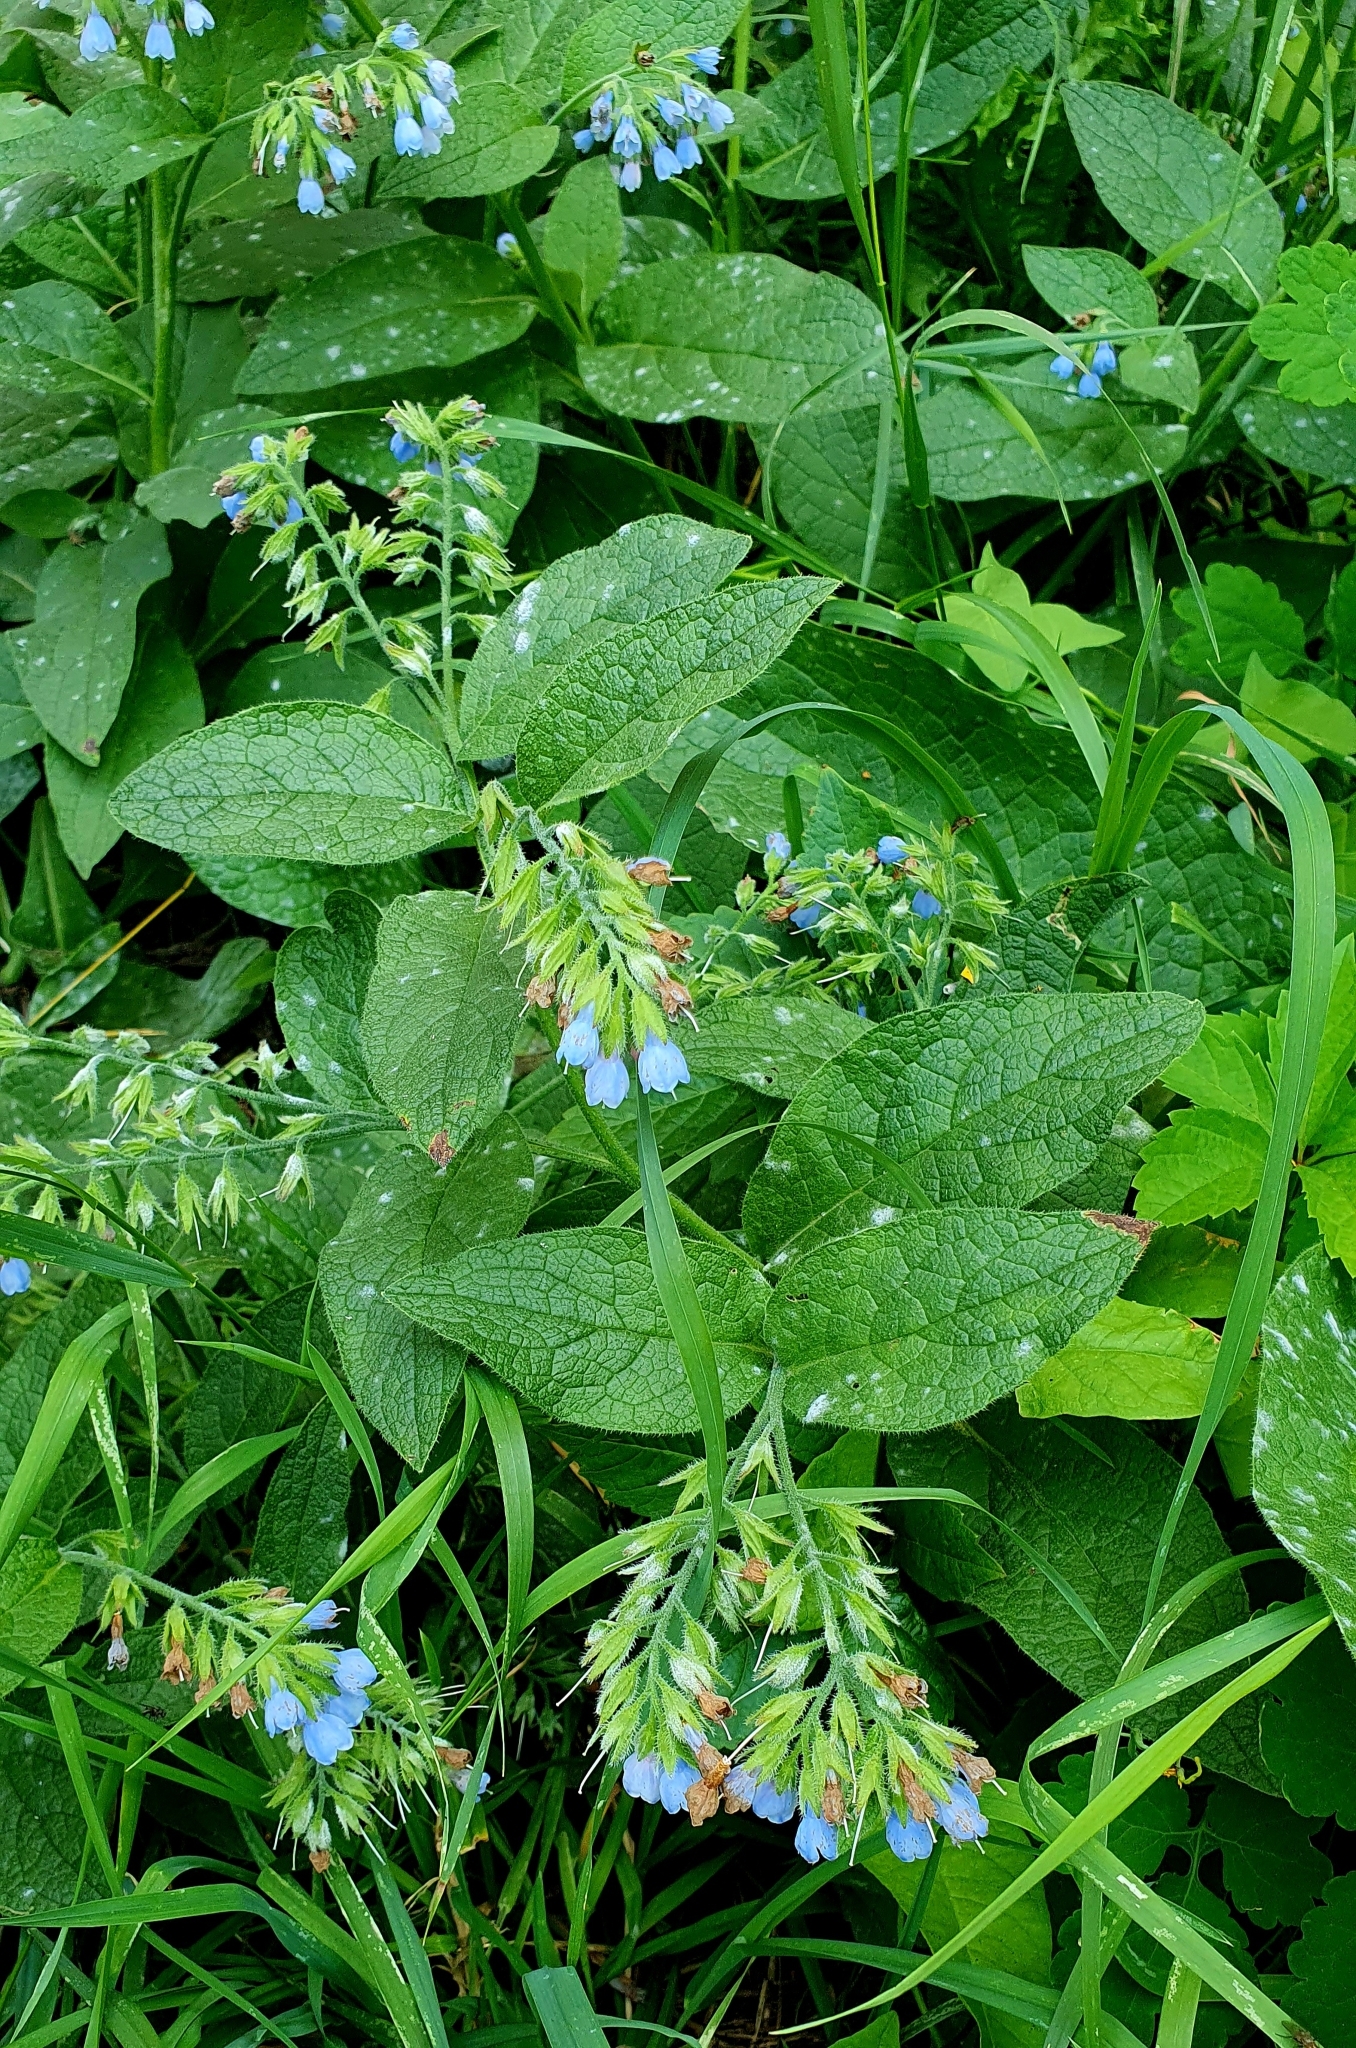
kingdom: Plantae
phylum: Tracheophyta
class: Magnoliopsida
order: Boraginales
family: Boraginaceae
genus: Symphytum
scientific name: Symphytum caucasicum
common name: Caucasian comfrey
